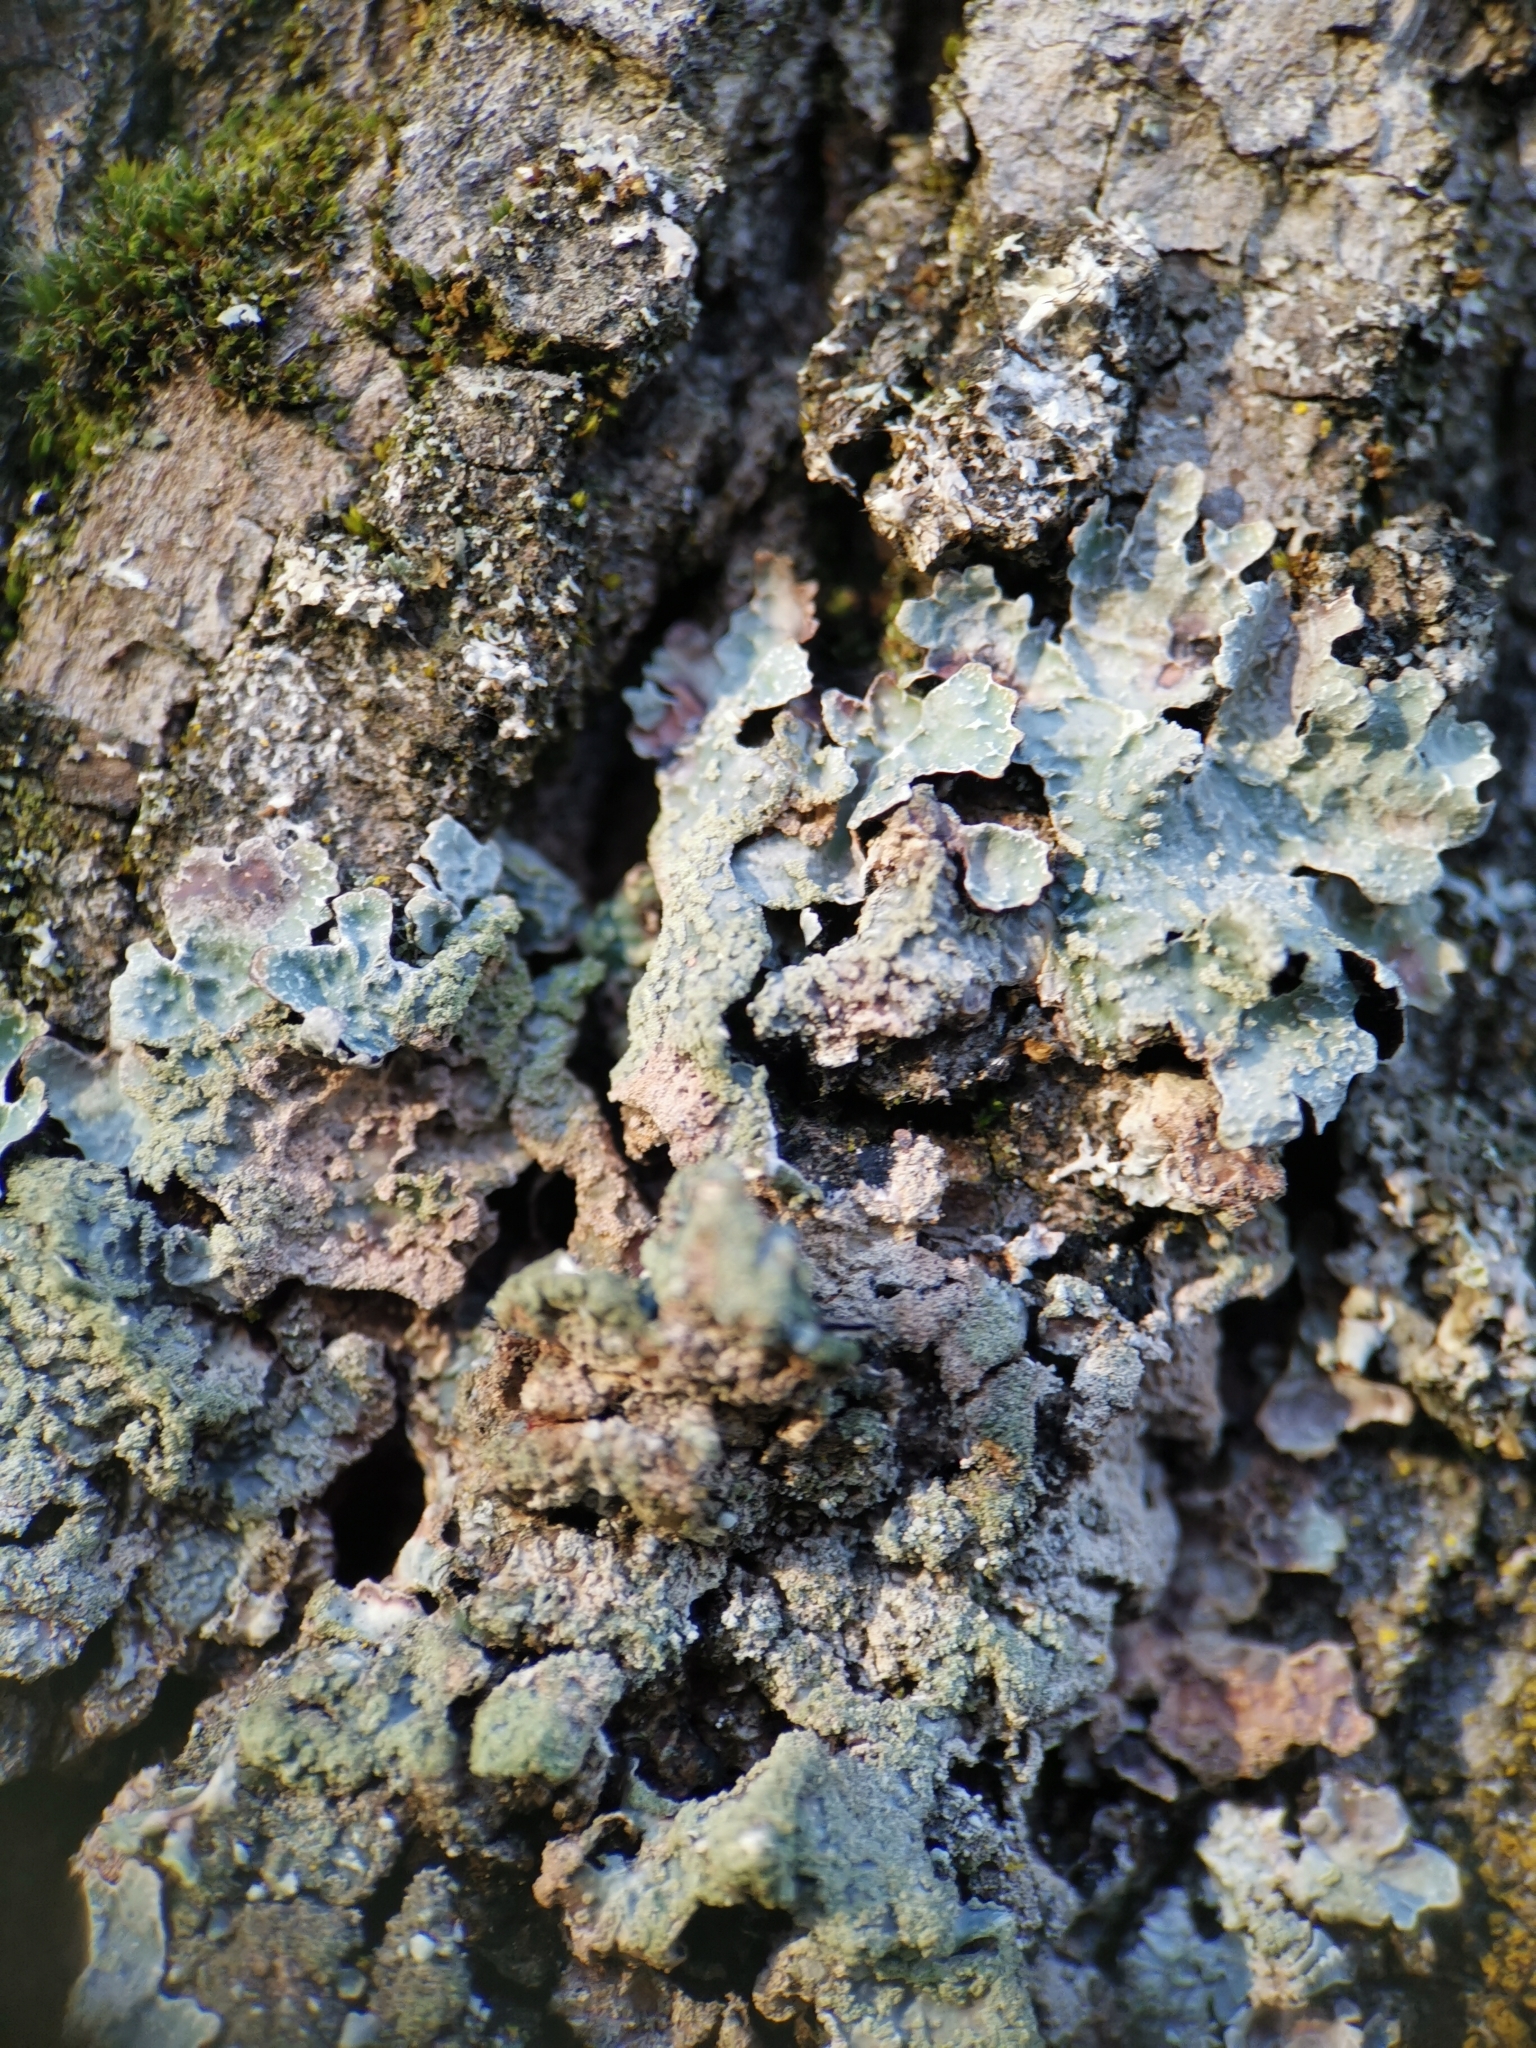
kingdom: Fungi
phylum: Ascomycota
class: Lecanoromycetes
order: Lecanorales
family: Parmeliaceae
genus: Parmelia
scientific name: Parmelia sulcata
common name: Netted shield lichen
